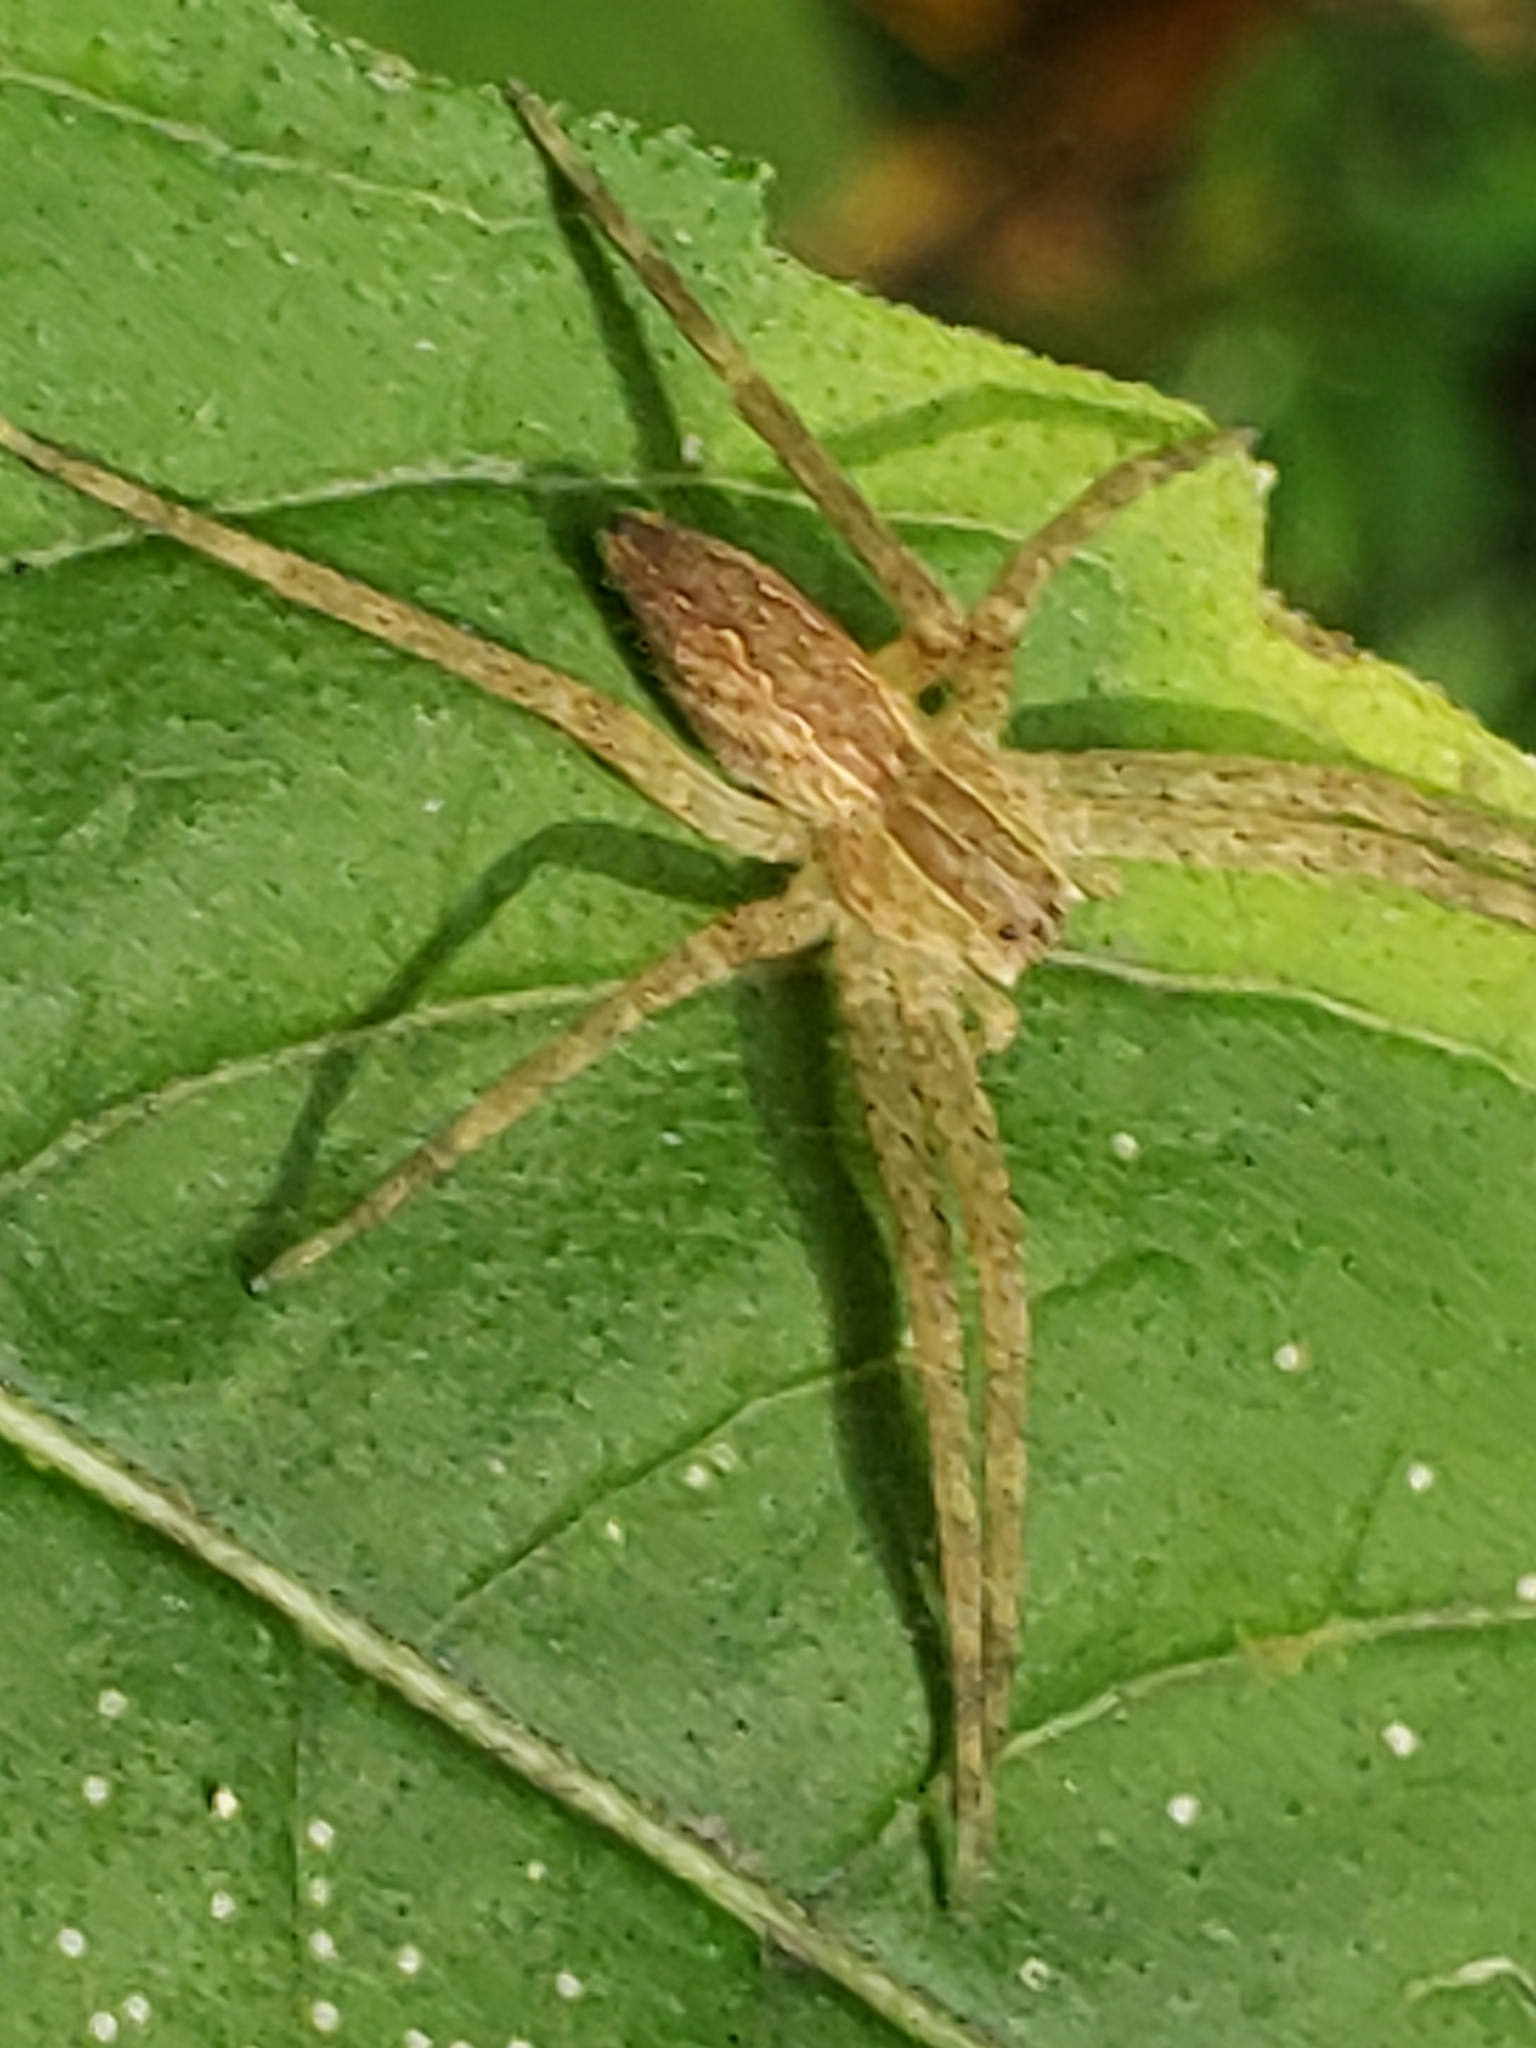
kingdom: Animalia
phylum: Arthropoda
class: Arachnida
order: Araneae
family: Pisauridae
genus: Pisaurina
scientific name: Pisaurina mira
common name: American nursery web spider
